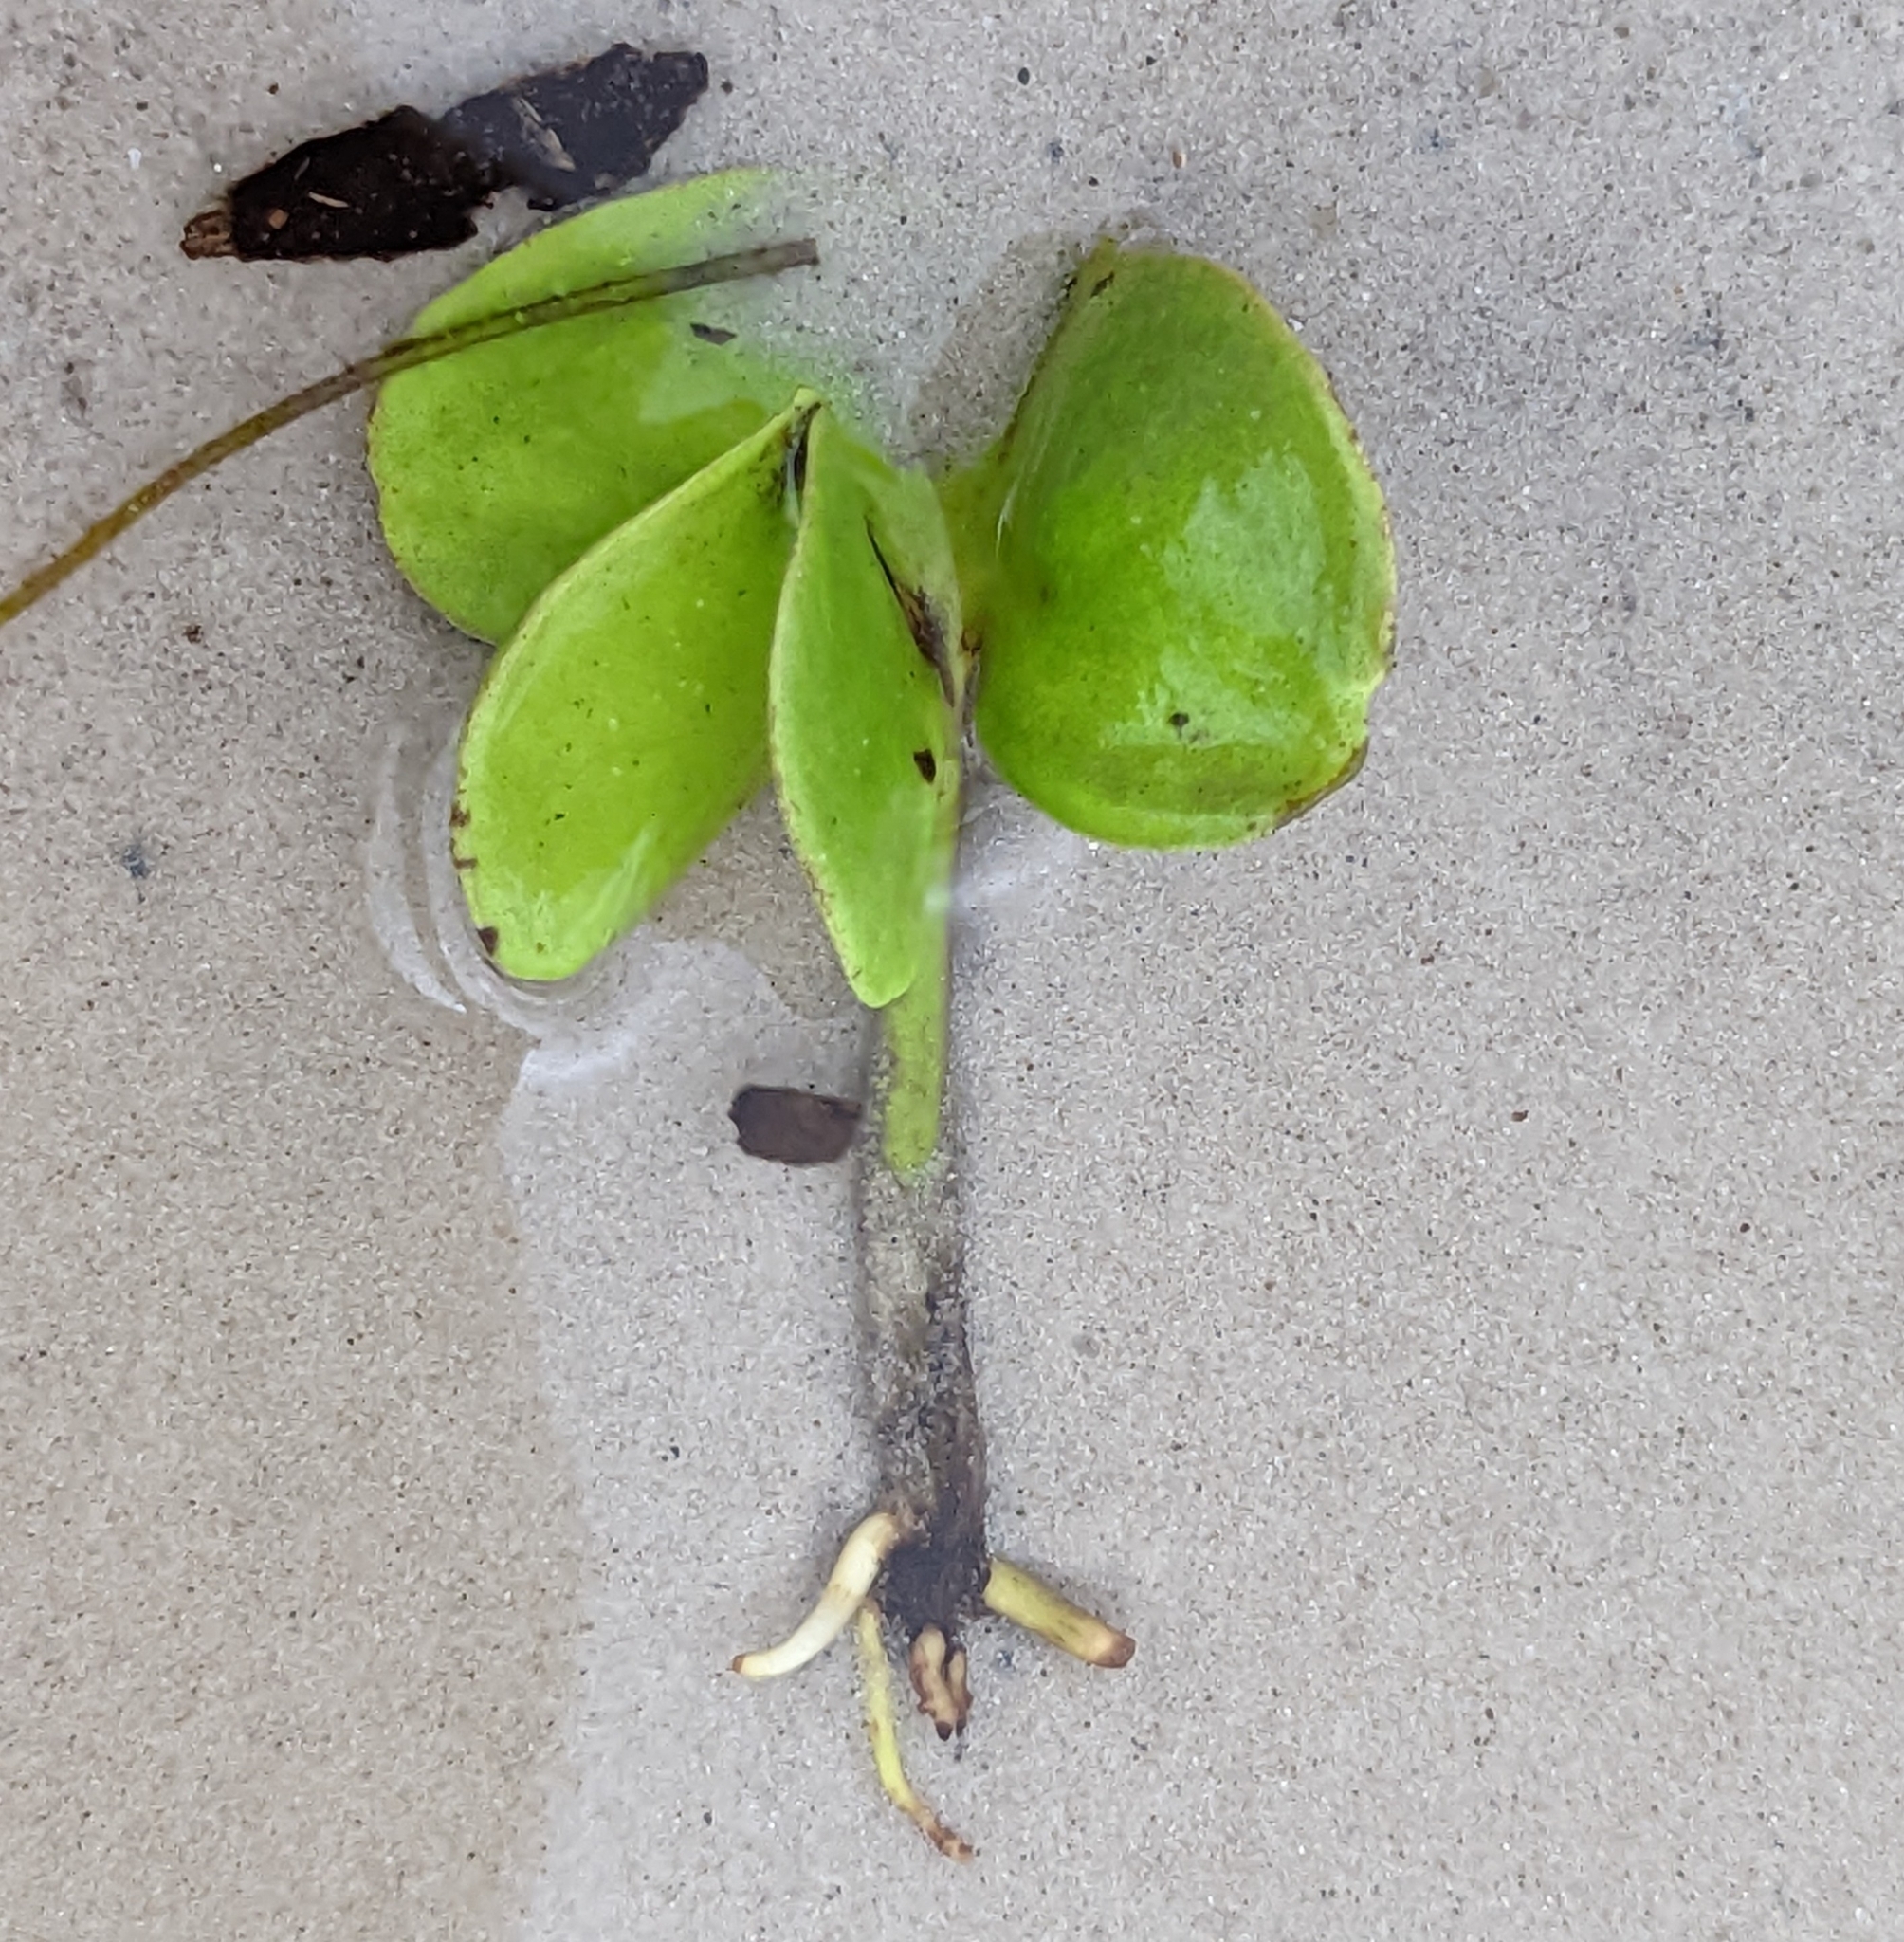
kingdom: Plantae
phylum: Tracheophyta
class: Magnoliopsida
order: Lamiales
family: Acanthaceae
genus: Avicennia
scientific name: Avicennia germinans
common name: Black mangrove
